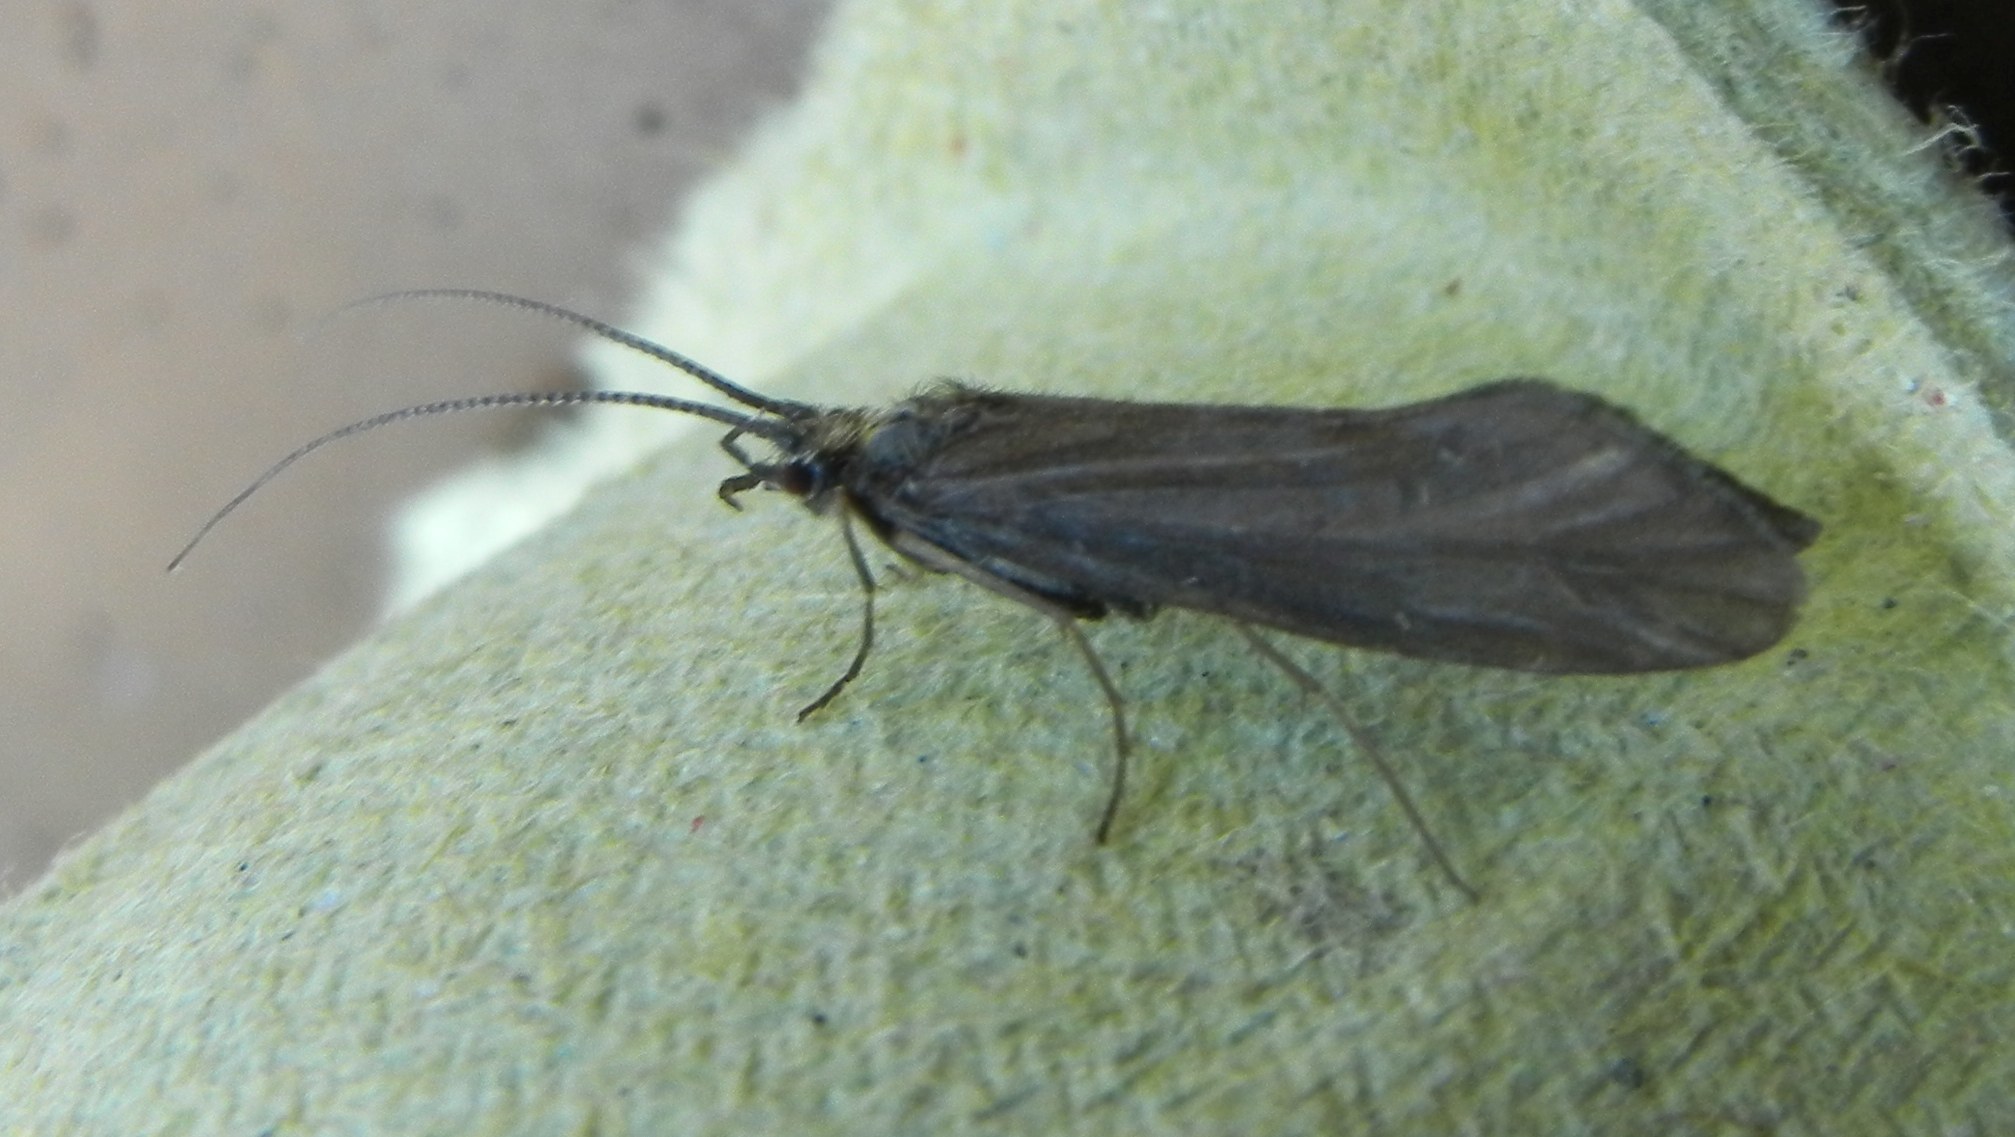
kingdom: Animalia
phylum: Arthropoda
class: Insecta
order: Trichoptera
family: Sericostomatidae
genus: Sericostoma
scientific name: Sericostoma personatum
